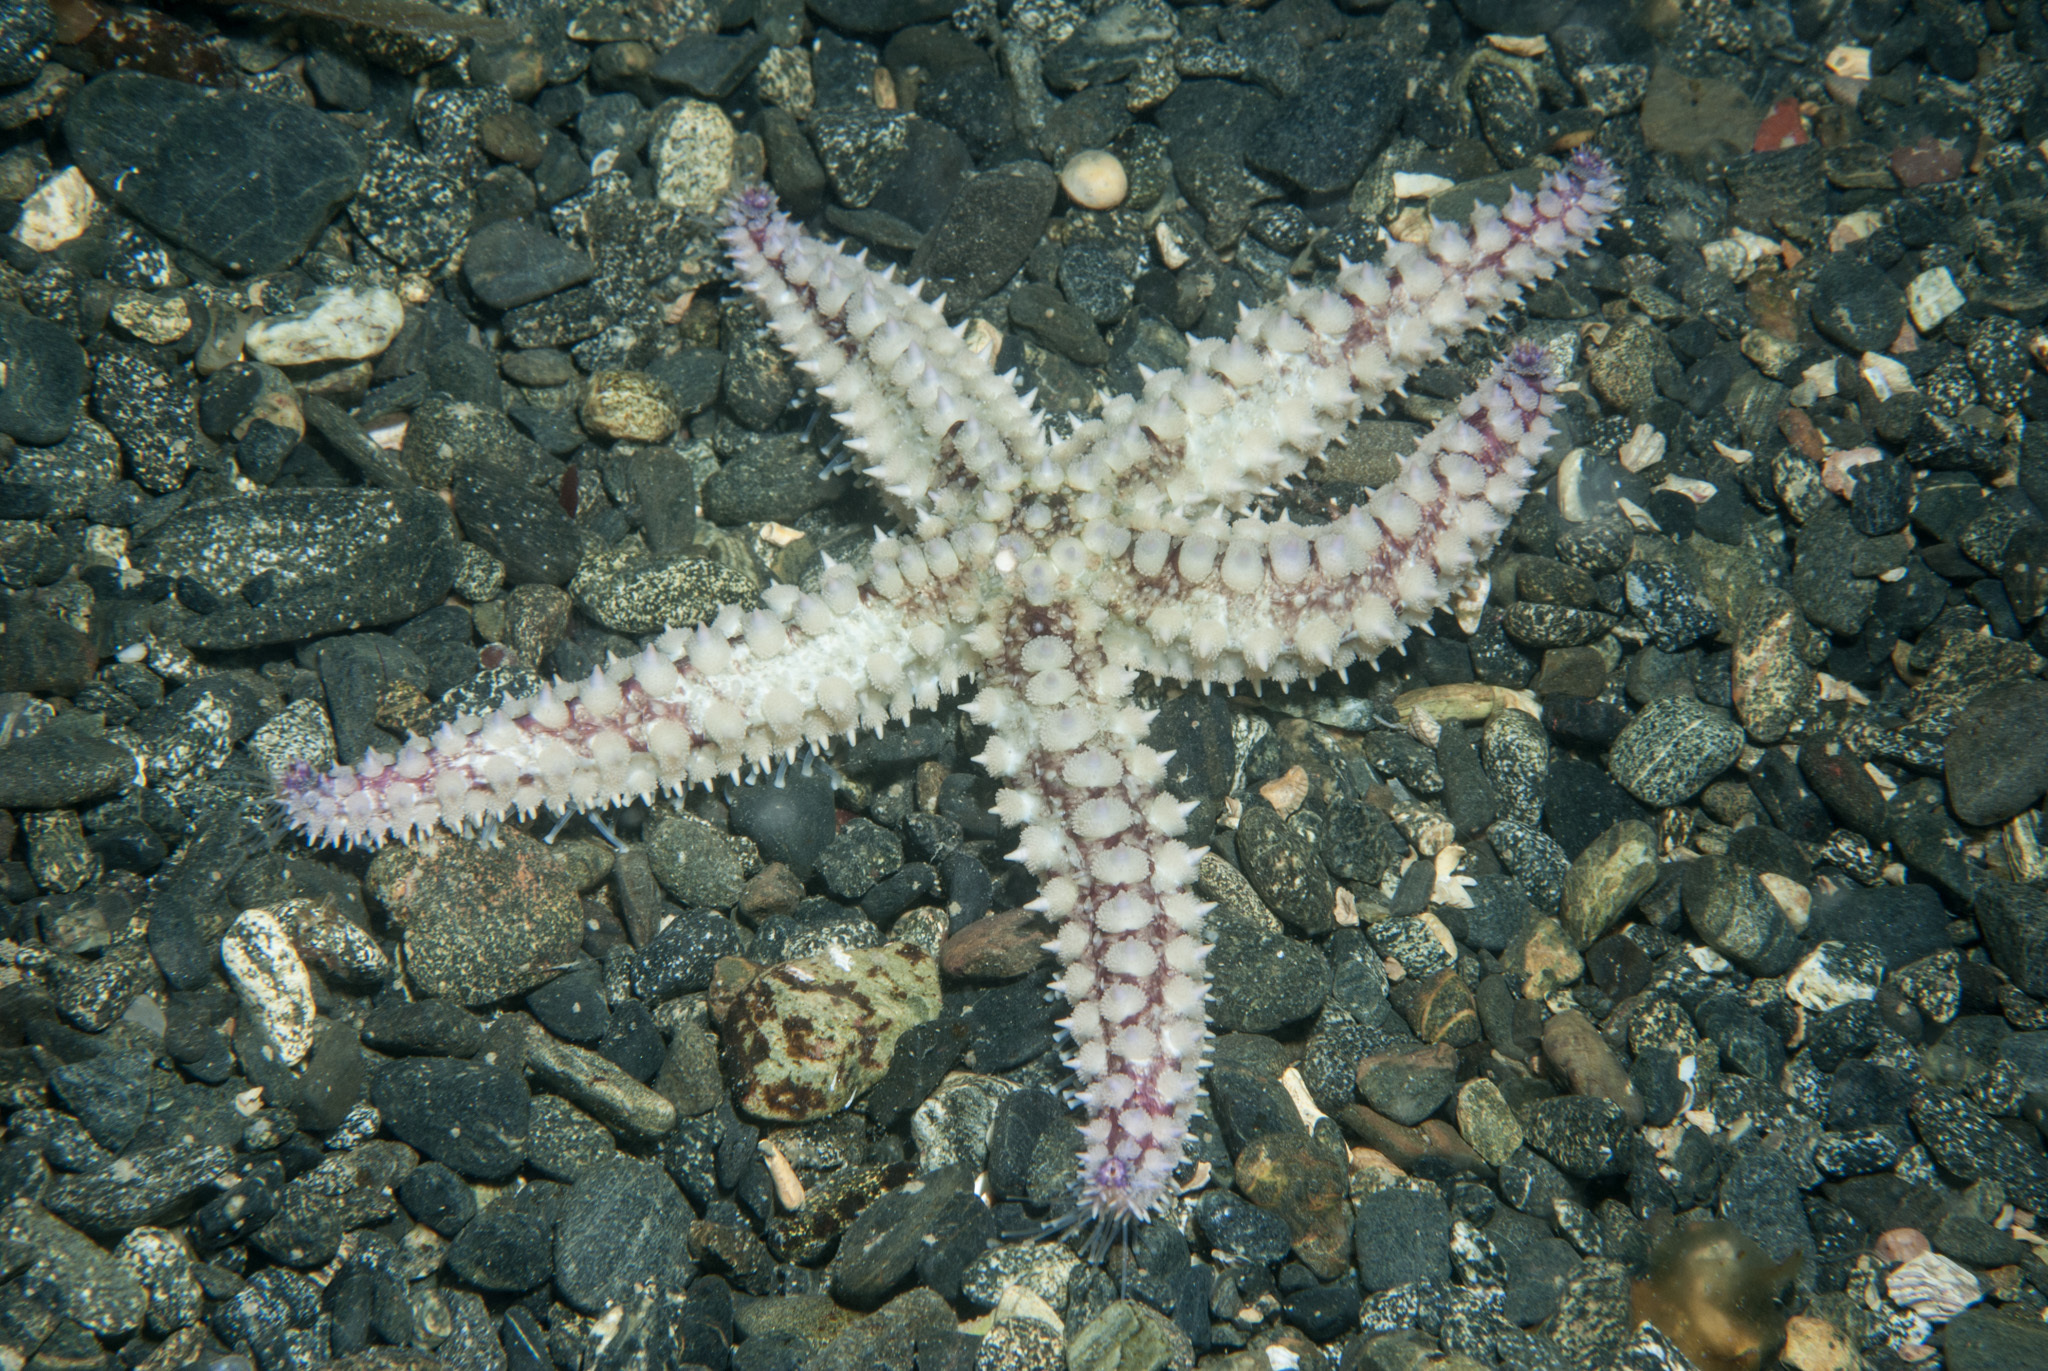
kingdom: Animalia
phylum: Echinodermata
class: Asteroidea
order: Forcipulatida
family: Asteriidae
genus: Marthasterias
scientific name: Marthasterias glacialis
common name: Spiny starfish
